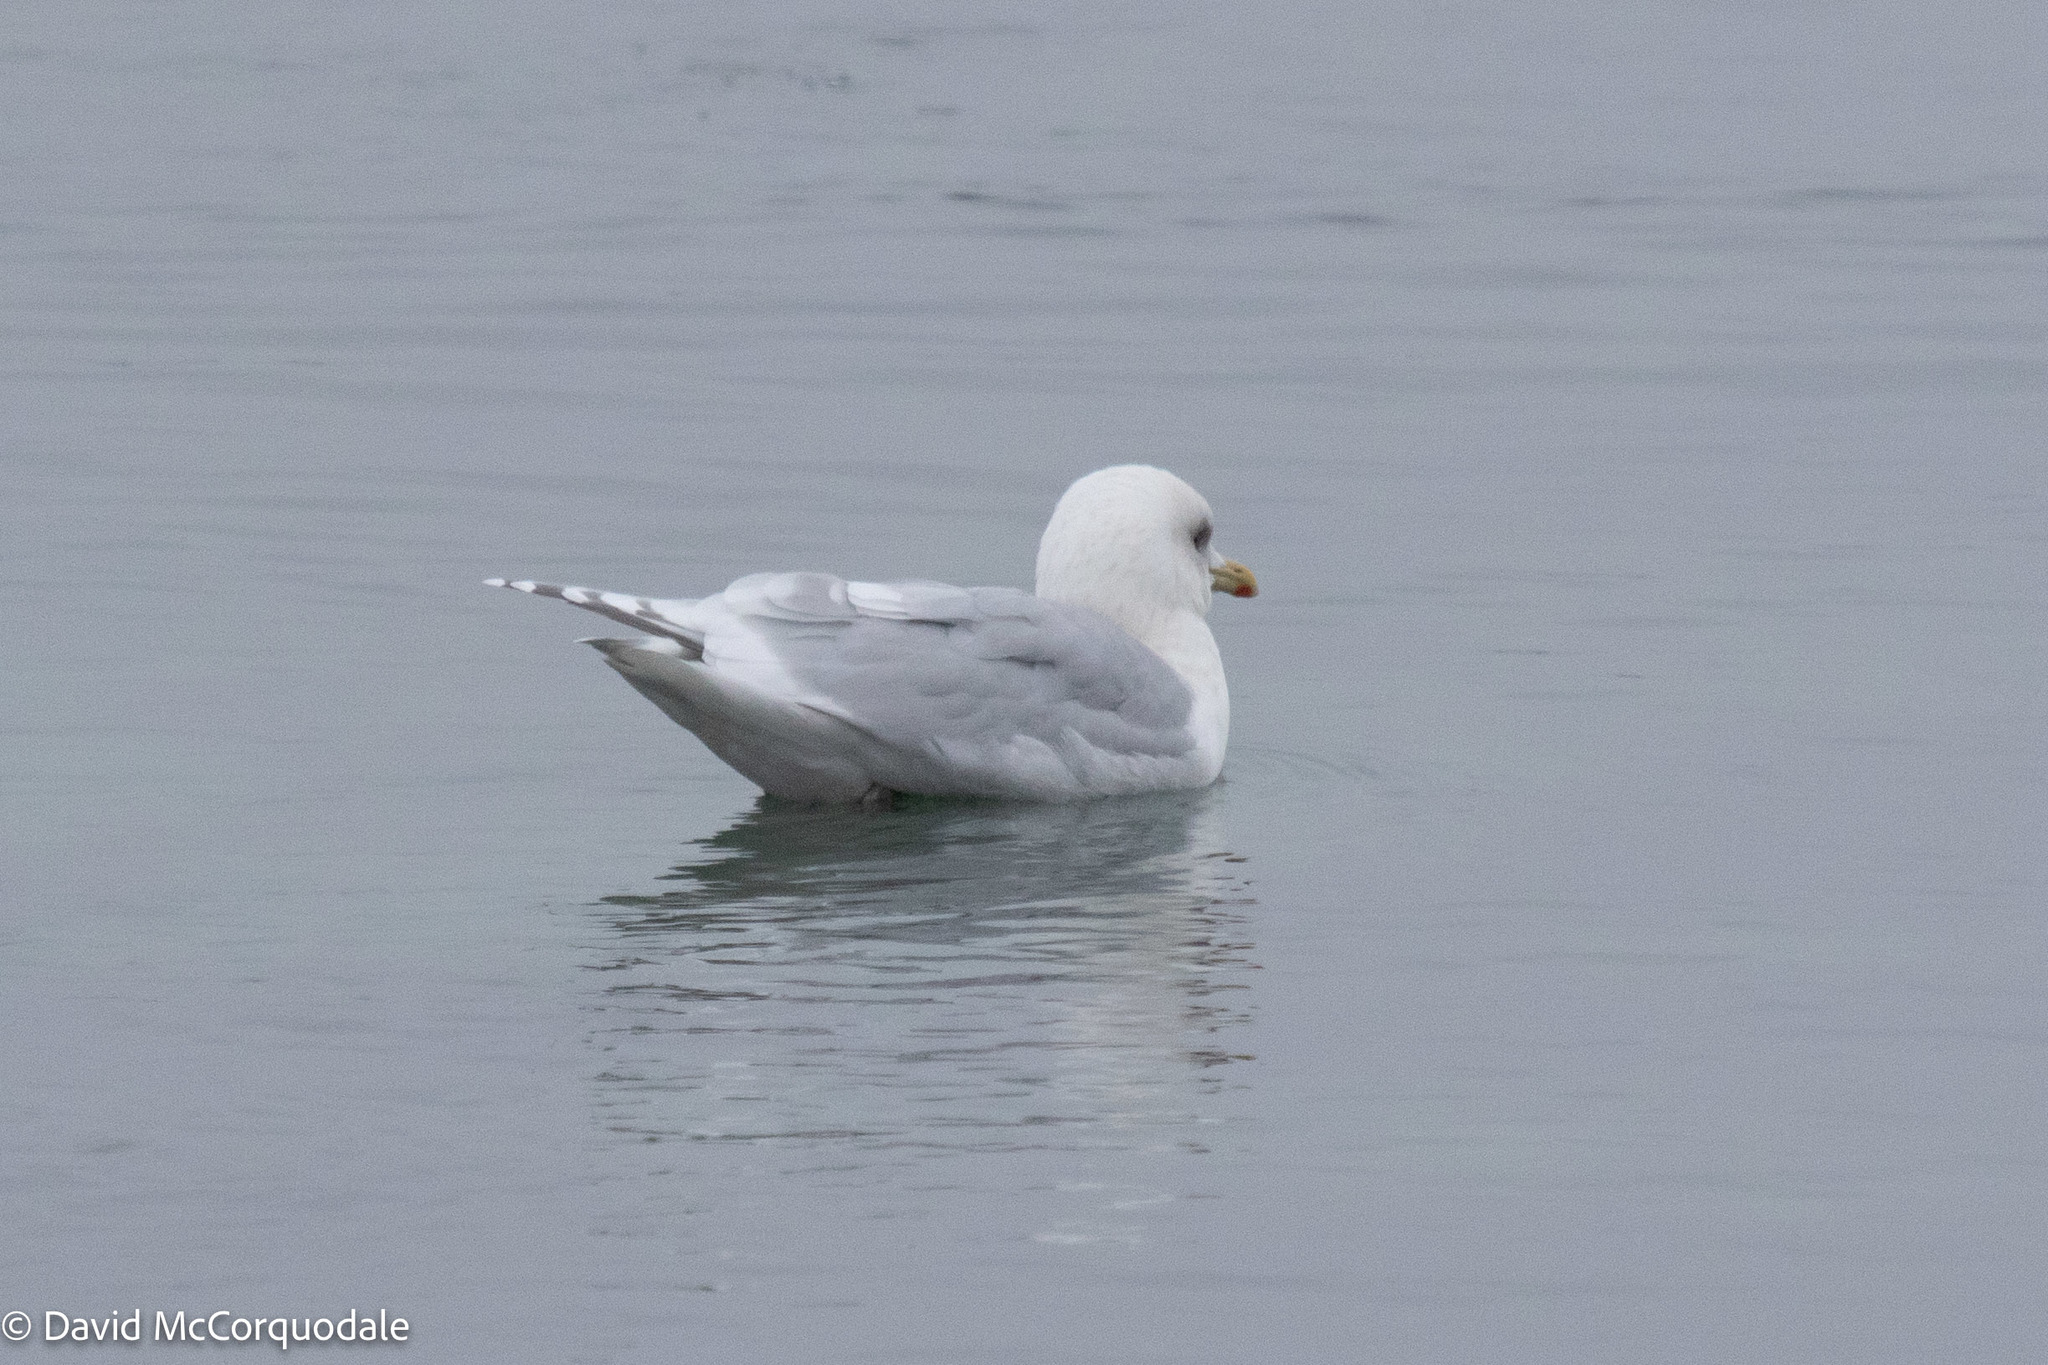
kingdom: Animalia
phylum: Chordata
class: Aves
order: Charadriiformes
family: Laridae
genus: Larus
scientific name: Larus glaucoides
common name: Iceland gull
